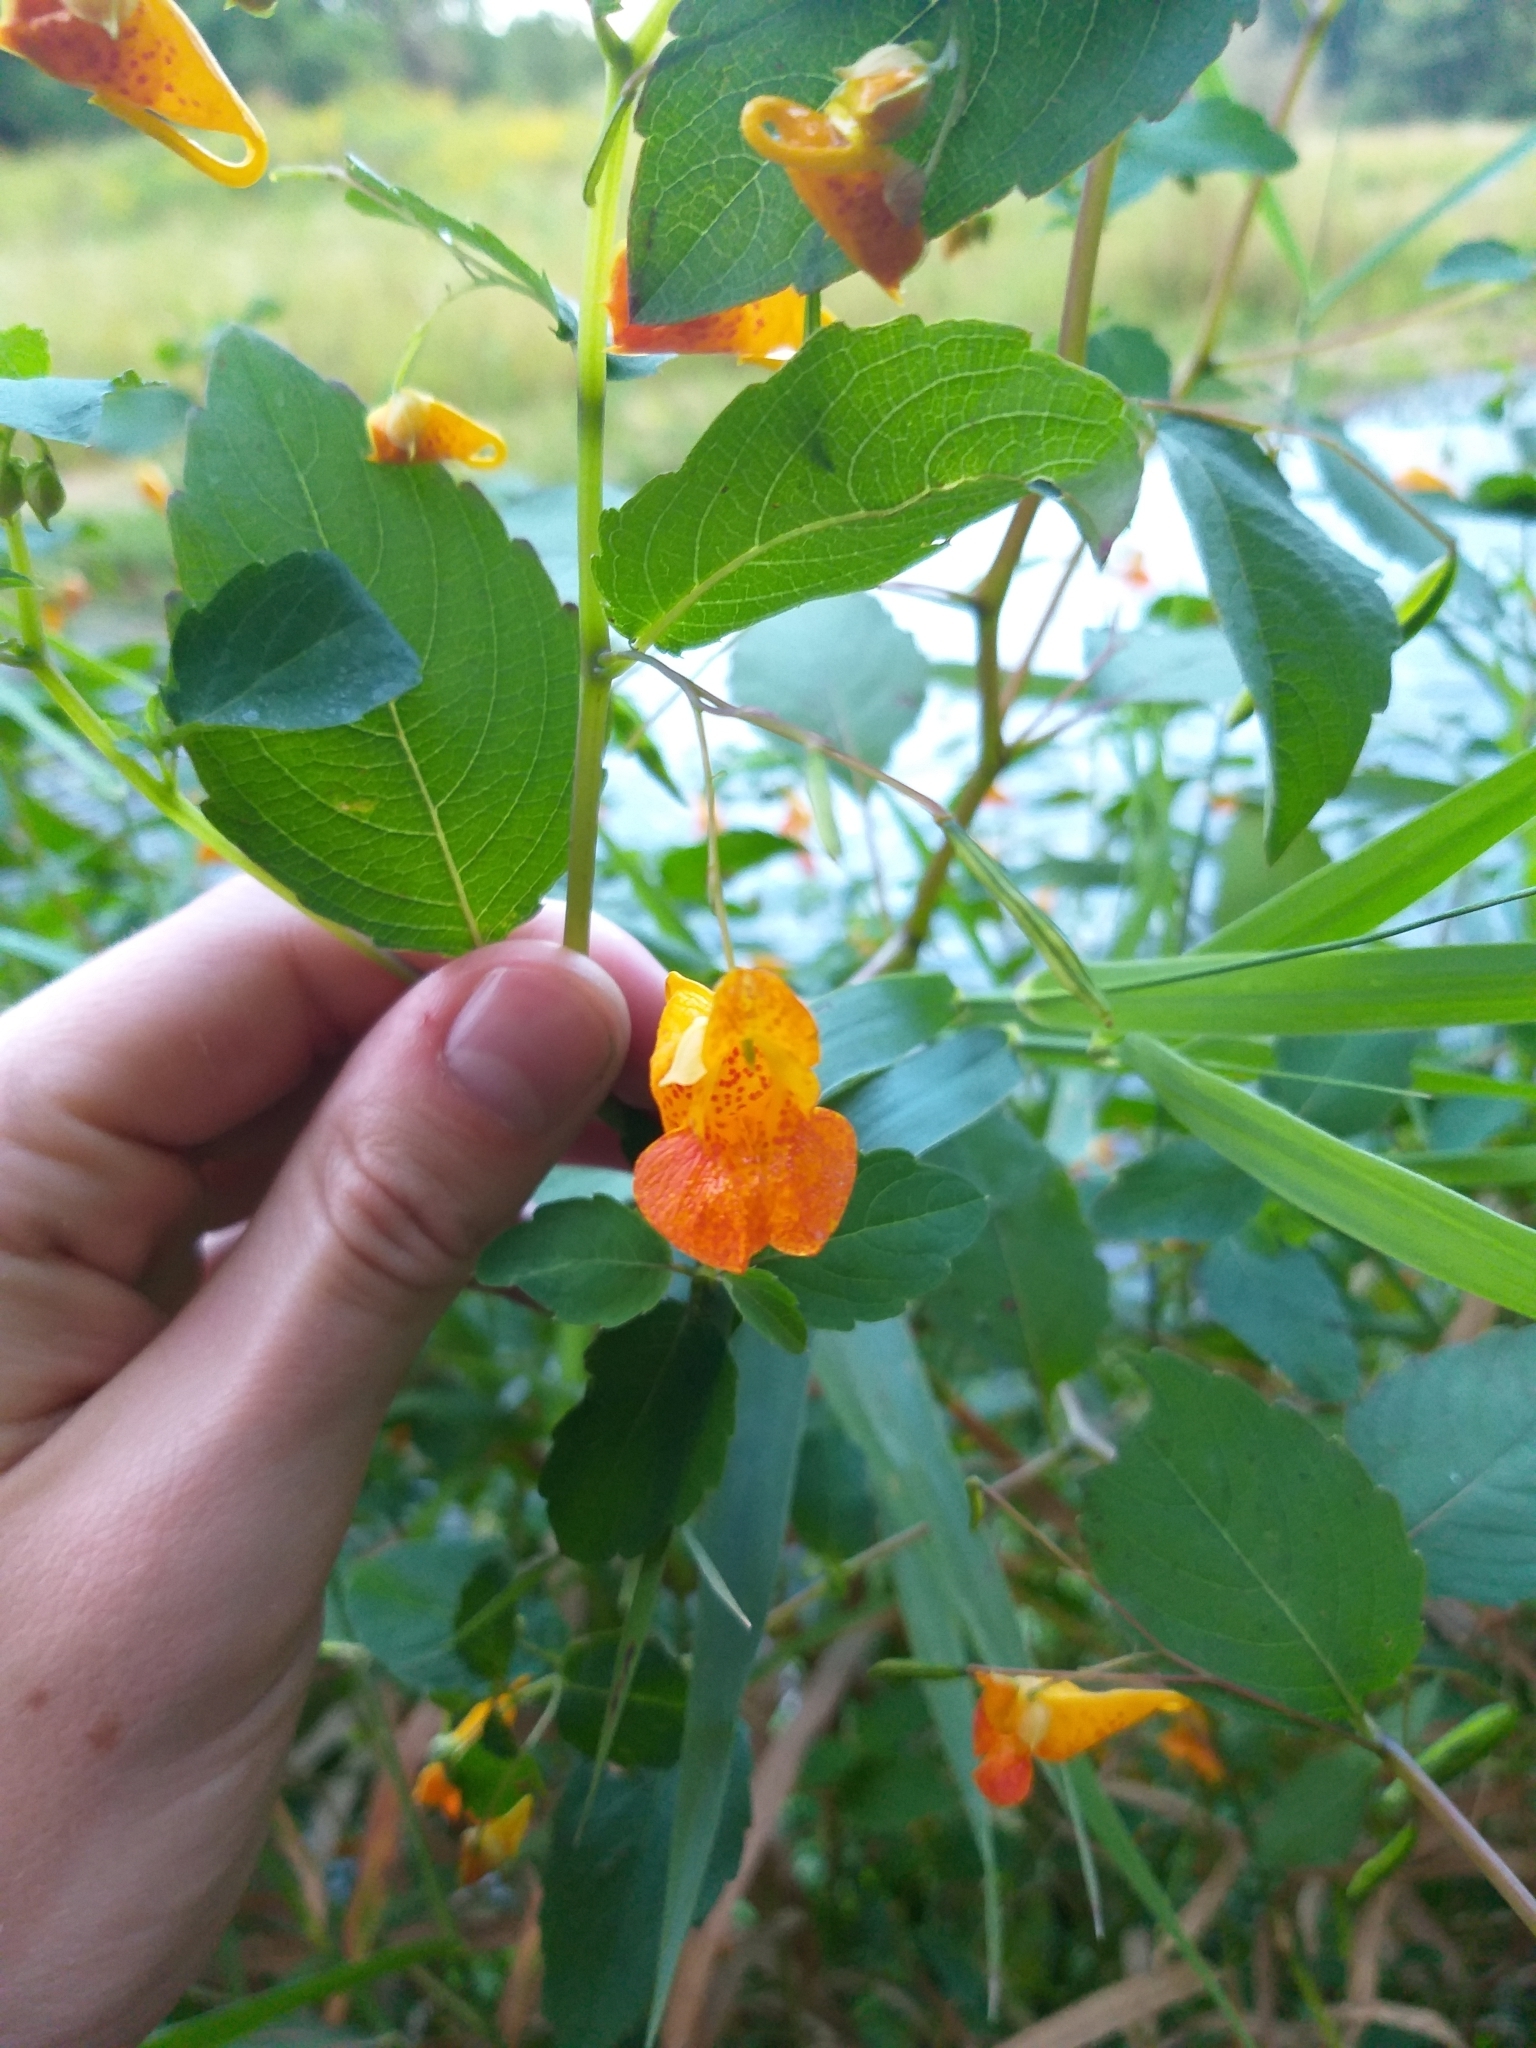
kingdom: Plantae
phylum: Tracheophyta
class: Magnoliopsida
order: Ericales
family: Balsaminaceae
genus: Impatiens
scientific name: Impatiens capensis
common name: Orange balsam
